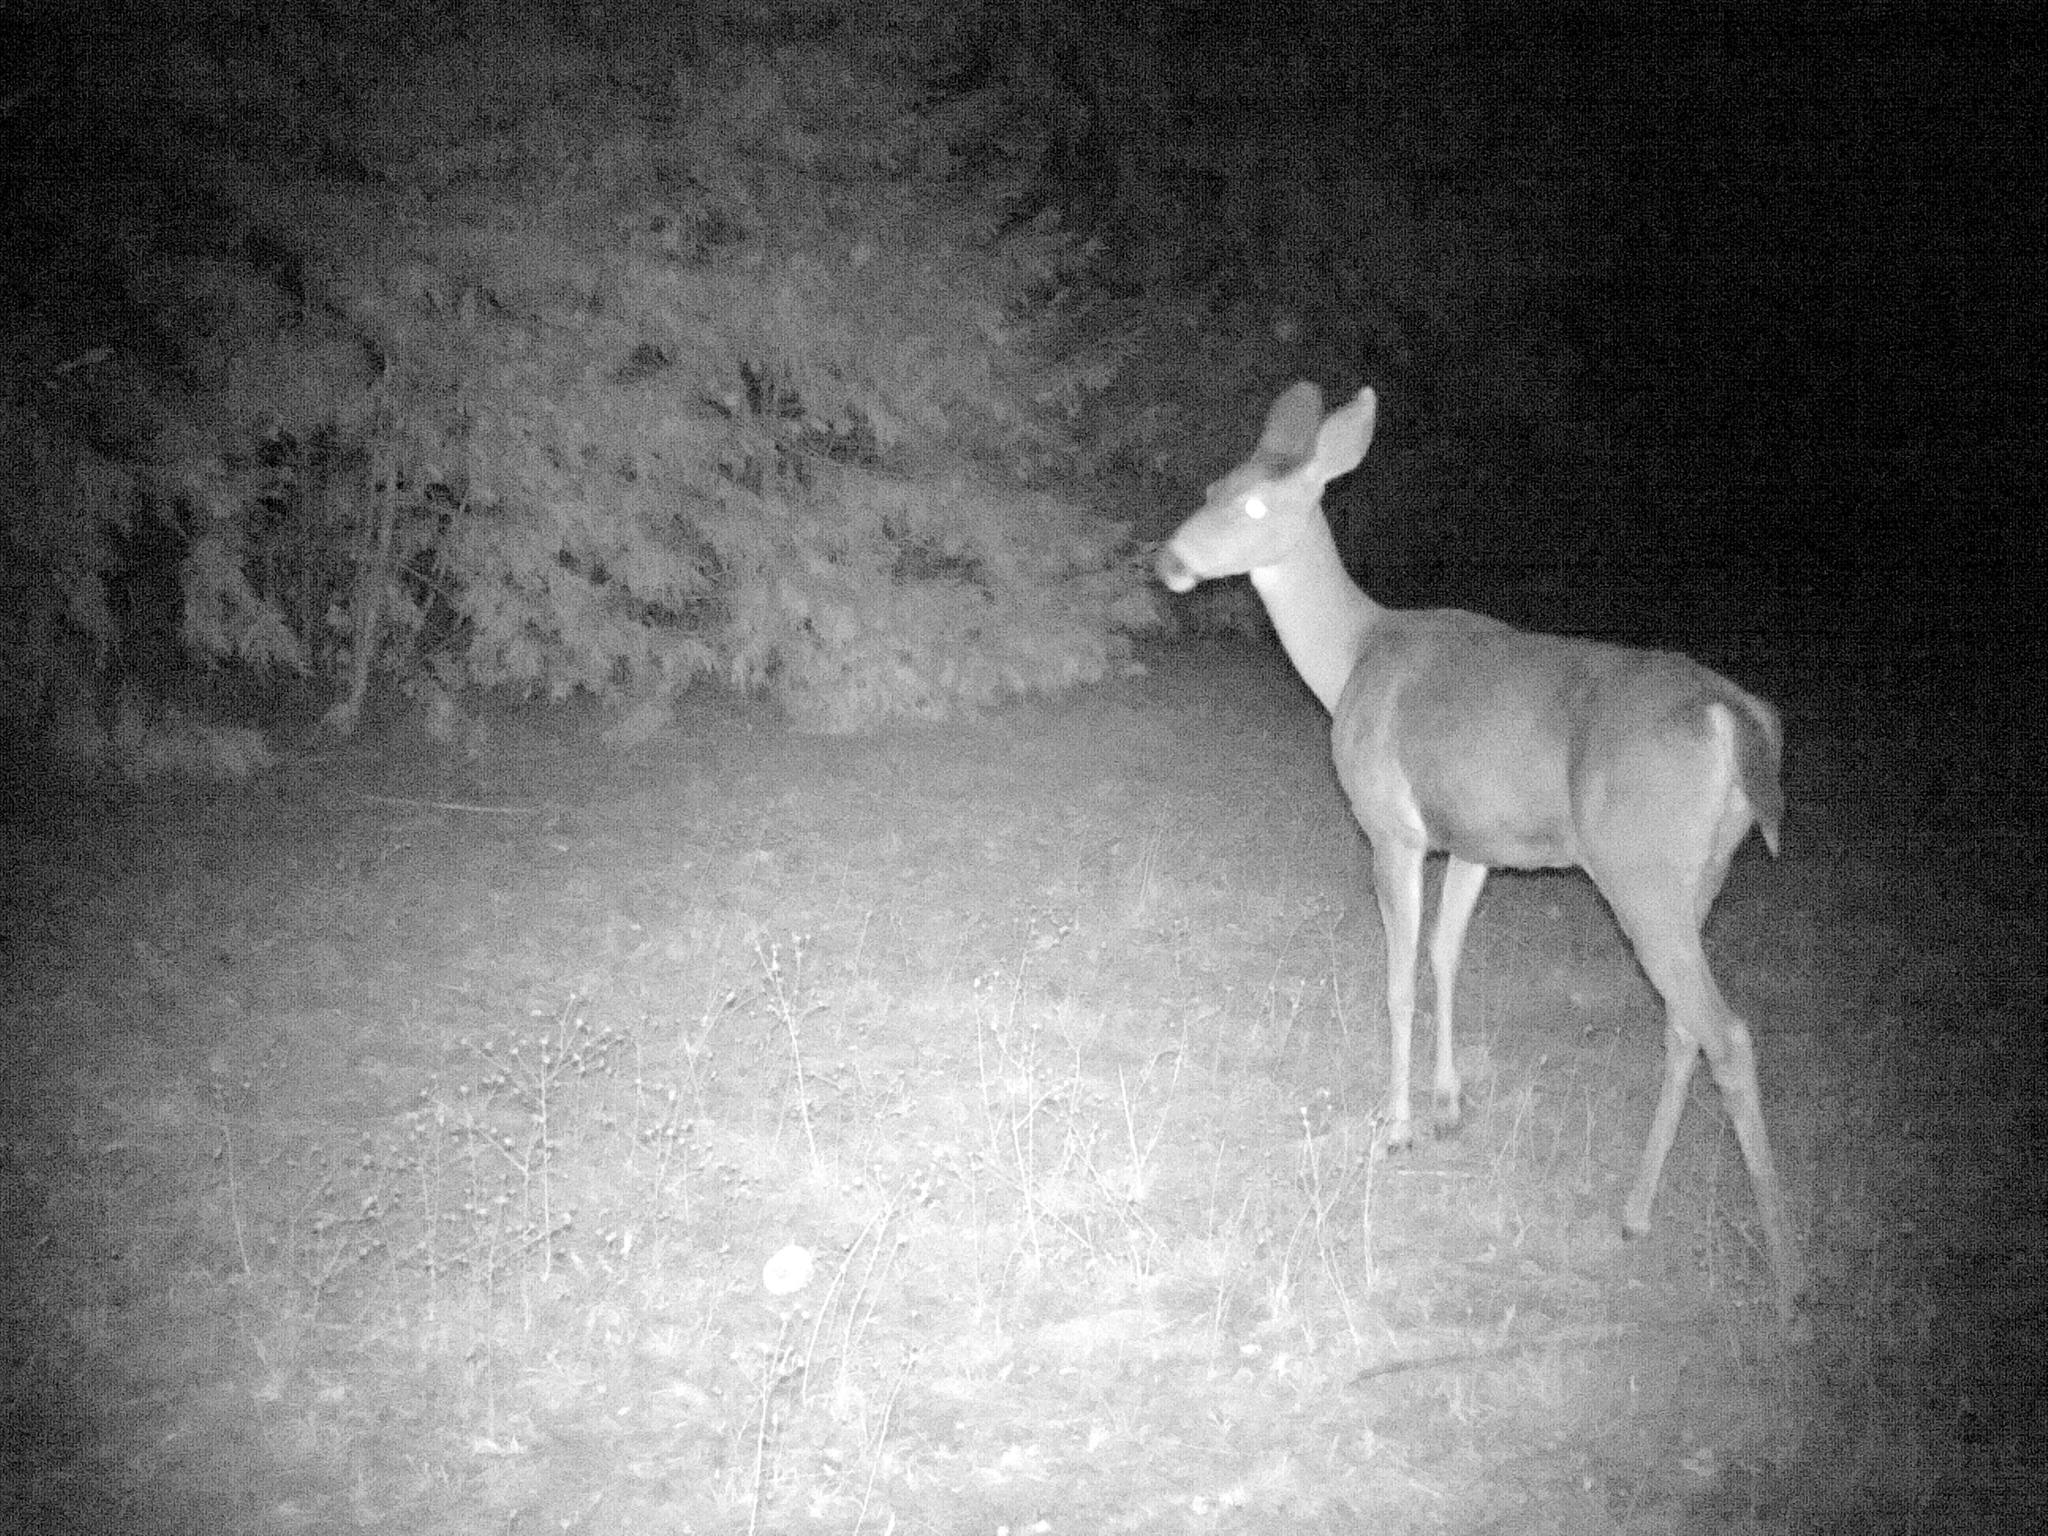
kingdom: Animalia
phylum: Chordata
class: Mammalia
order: Artiodactyla
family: Cervidae
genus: Odocoileus
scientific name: Odocoileus hemionus
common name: Mule deer
